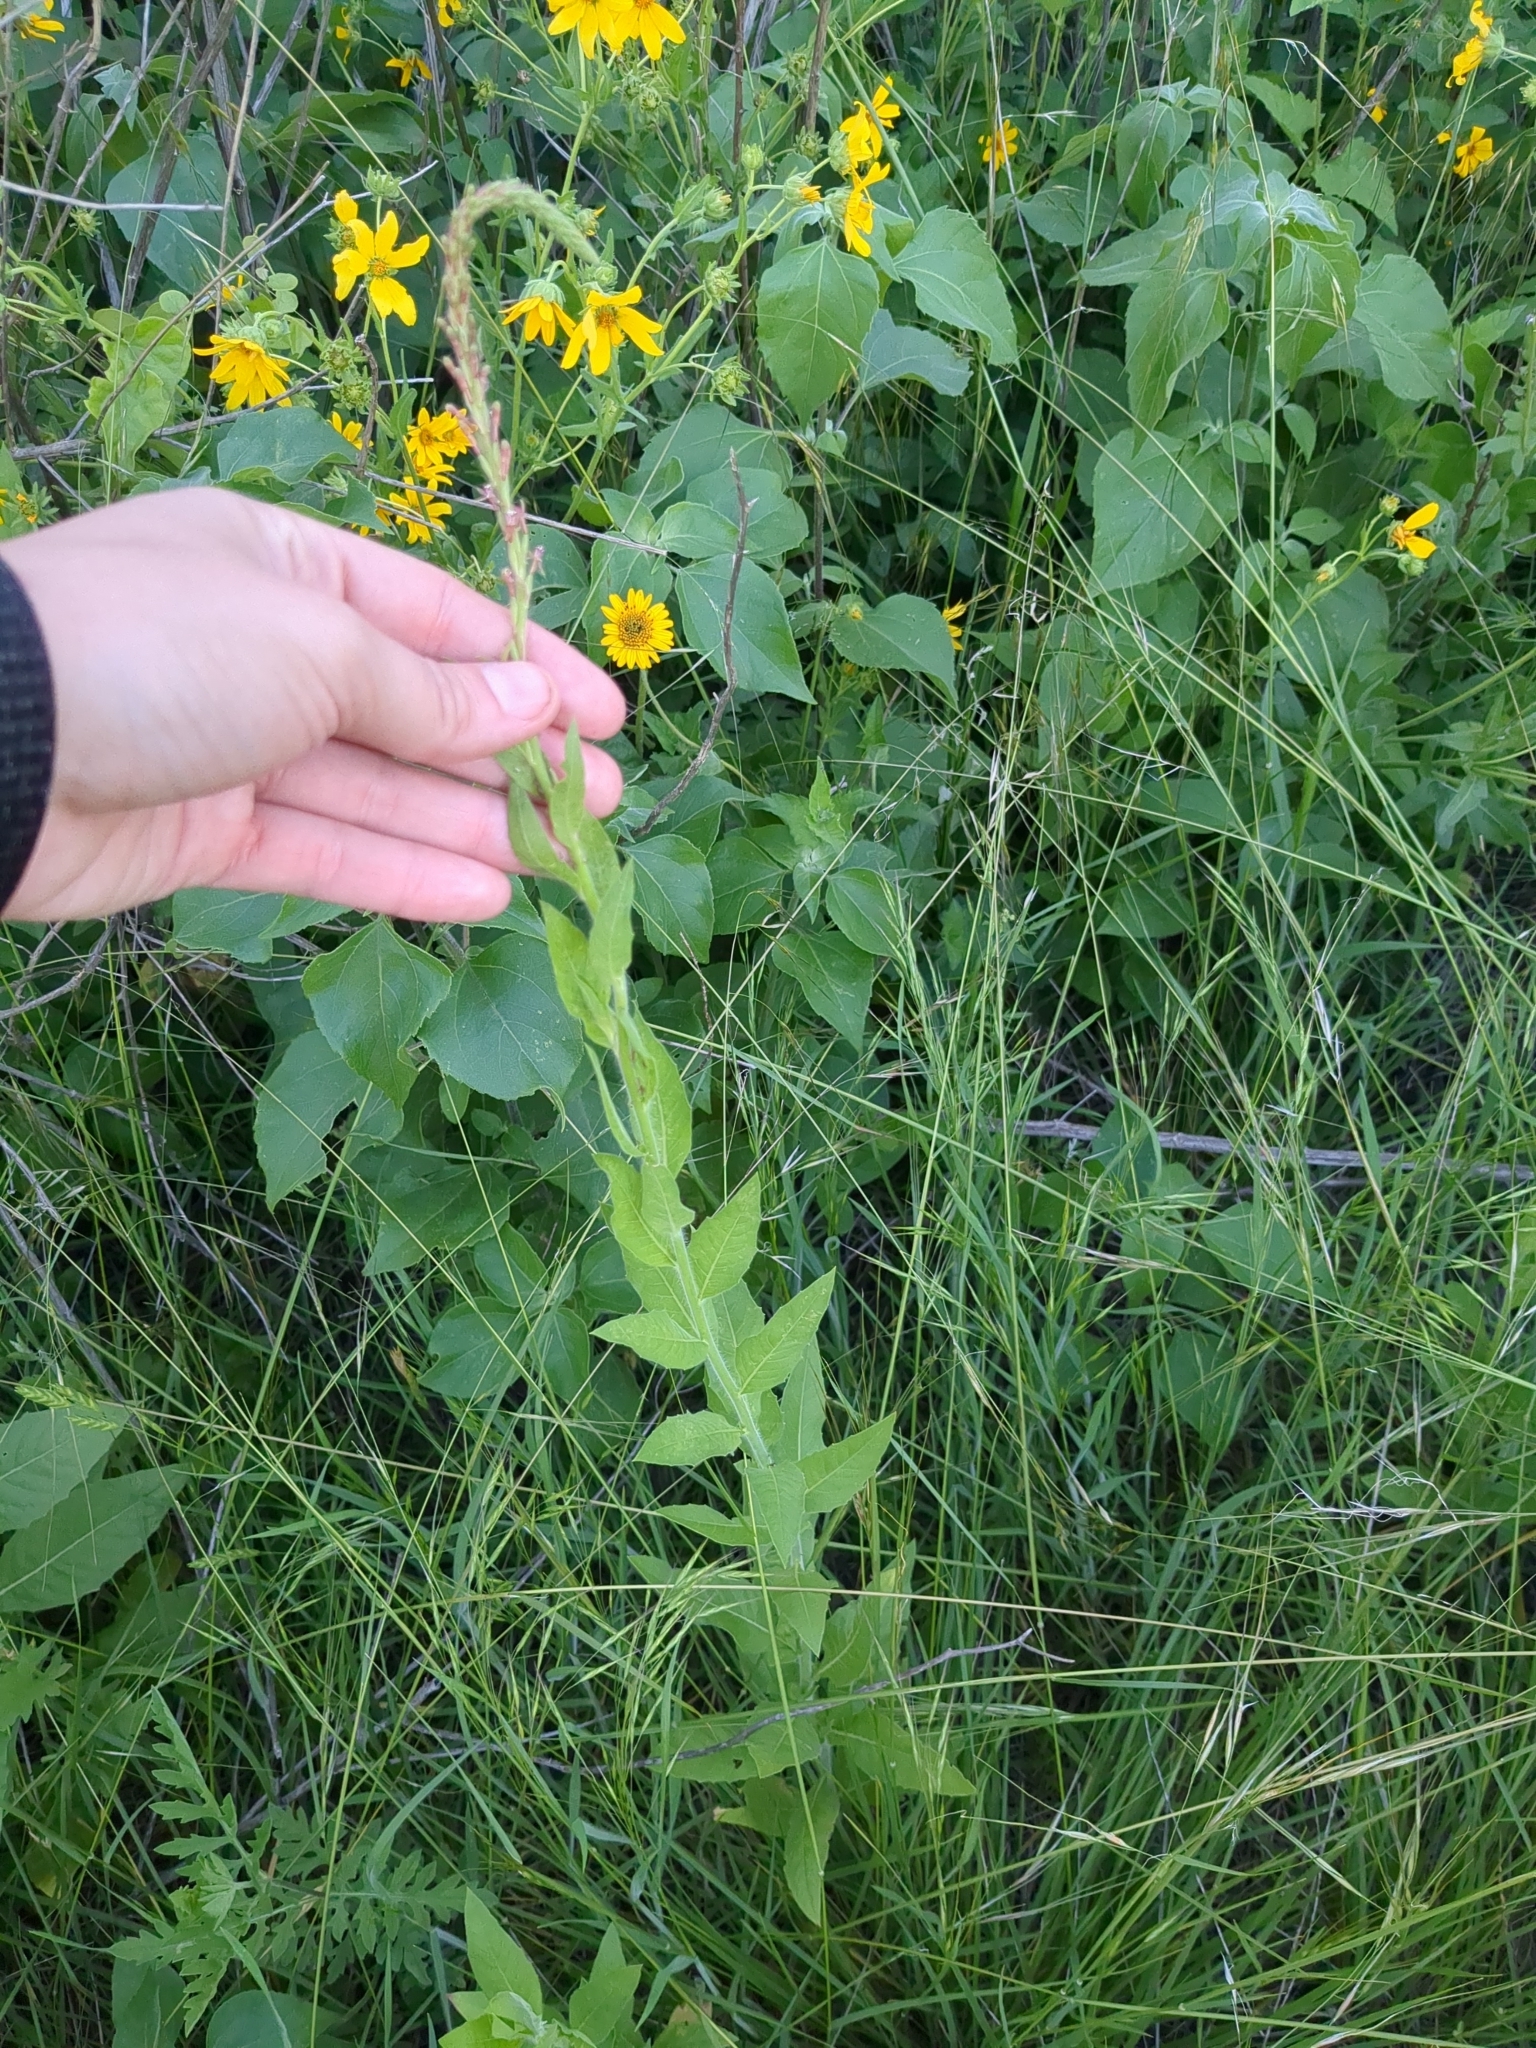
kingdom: Plantae
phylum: Tracheophyta
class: Magnoliopsida
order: Myrtales
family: Onagraceae
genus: Oenothera
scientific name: Oenothera curtiflora
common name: Velvetweed
